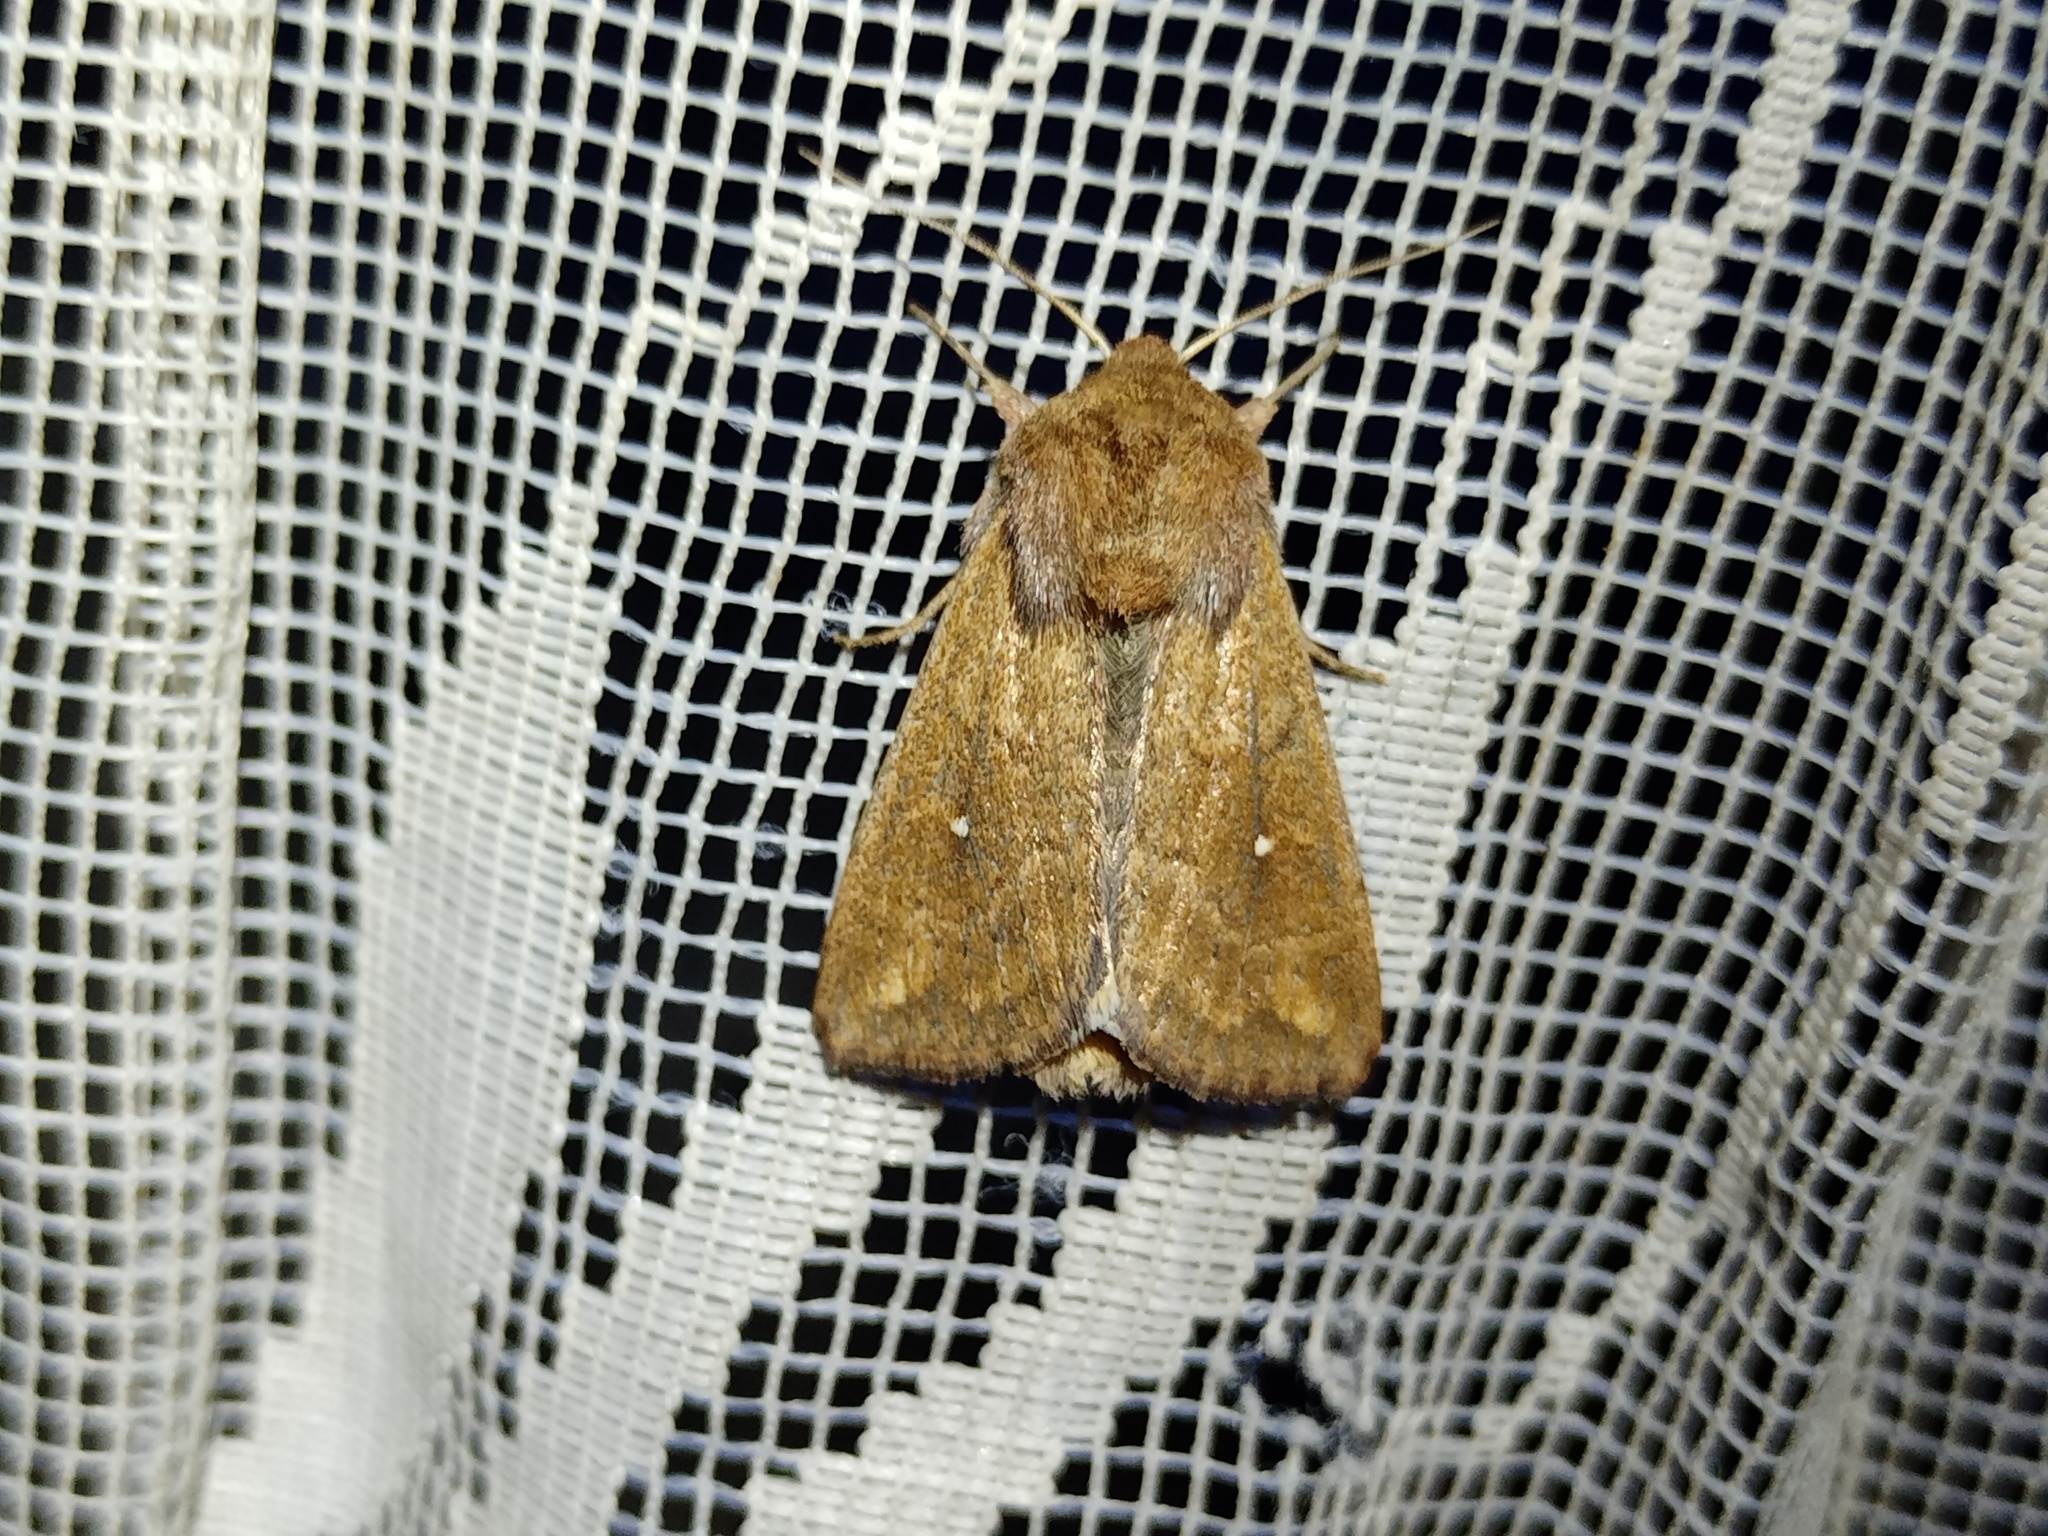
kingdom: Animalia
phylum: Arthropoda
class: Insecta
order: Lepidoptera
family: Noctuidae
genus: Mythimna
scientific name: Mythimna albipuncta
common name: White-point
